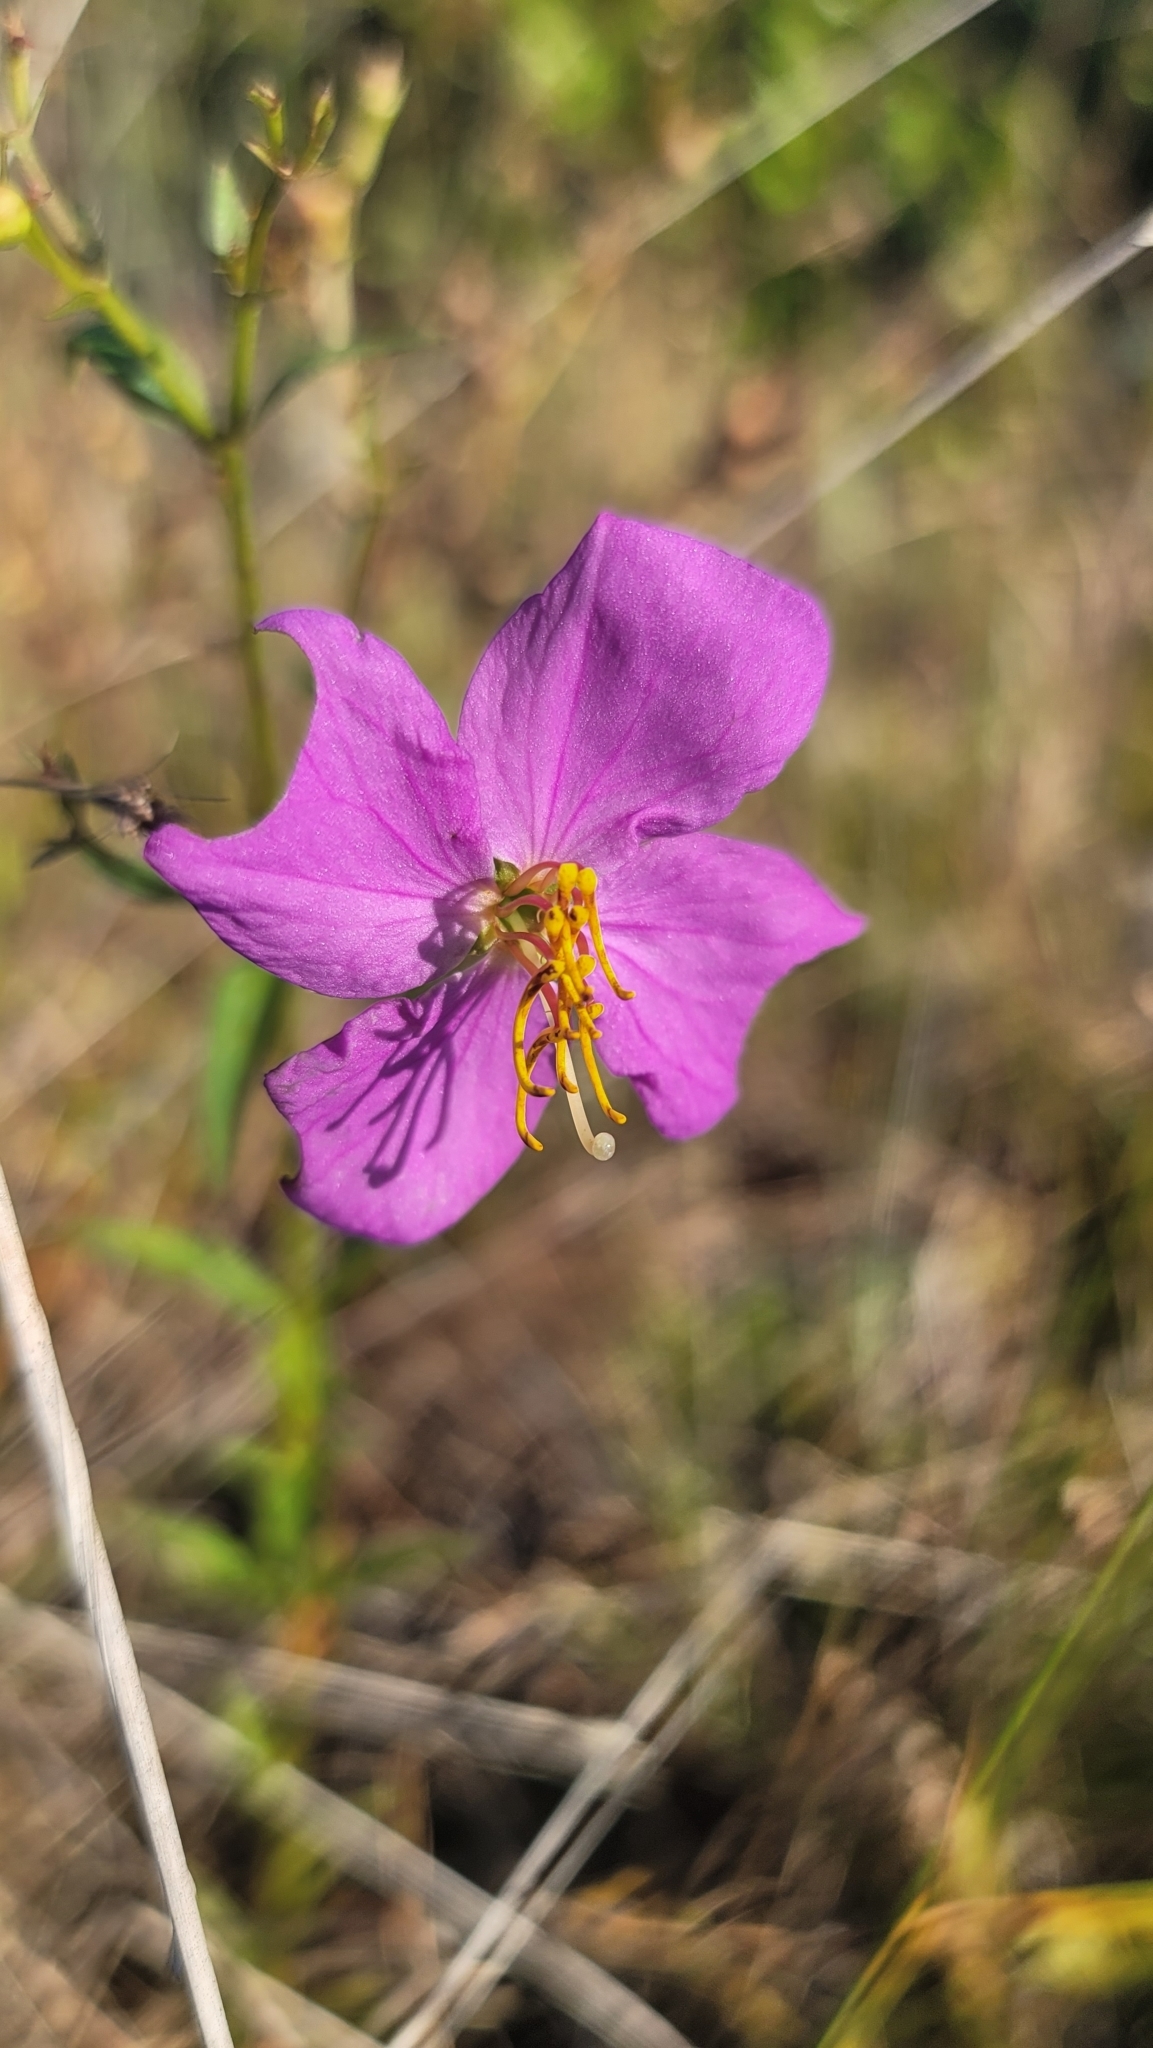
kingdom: Plantae
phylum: Tracheophyta
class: Magnoliopsida
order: Myrtales
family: Melastomataceae
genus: Rhexia
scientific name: Rhexia alifanus
